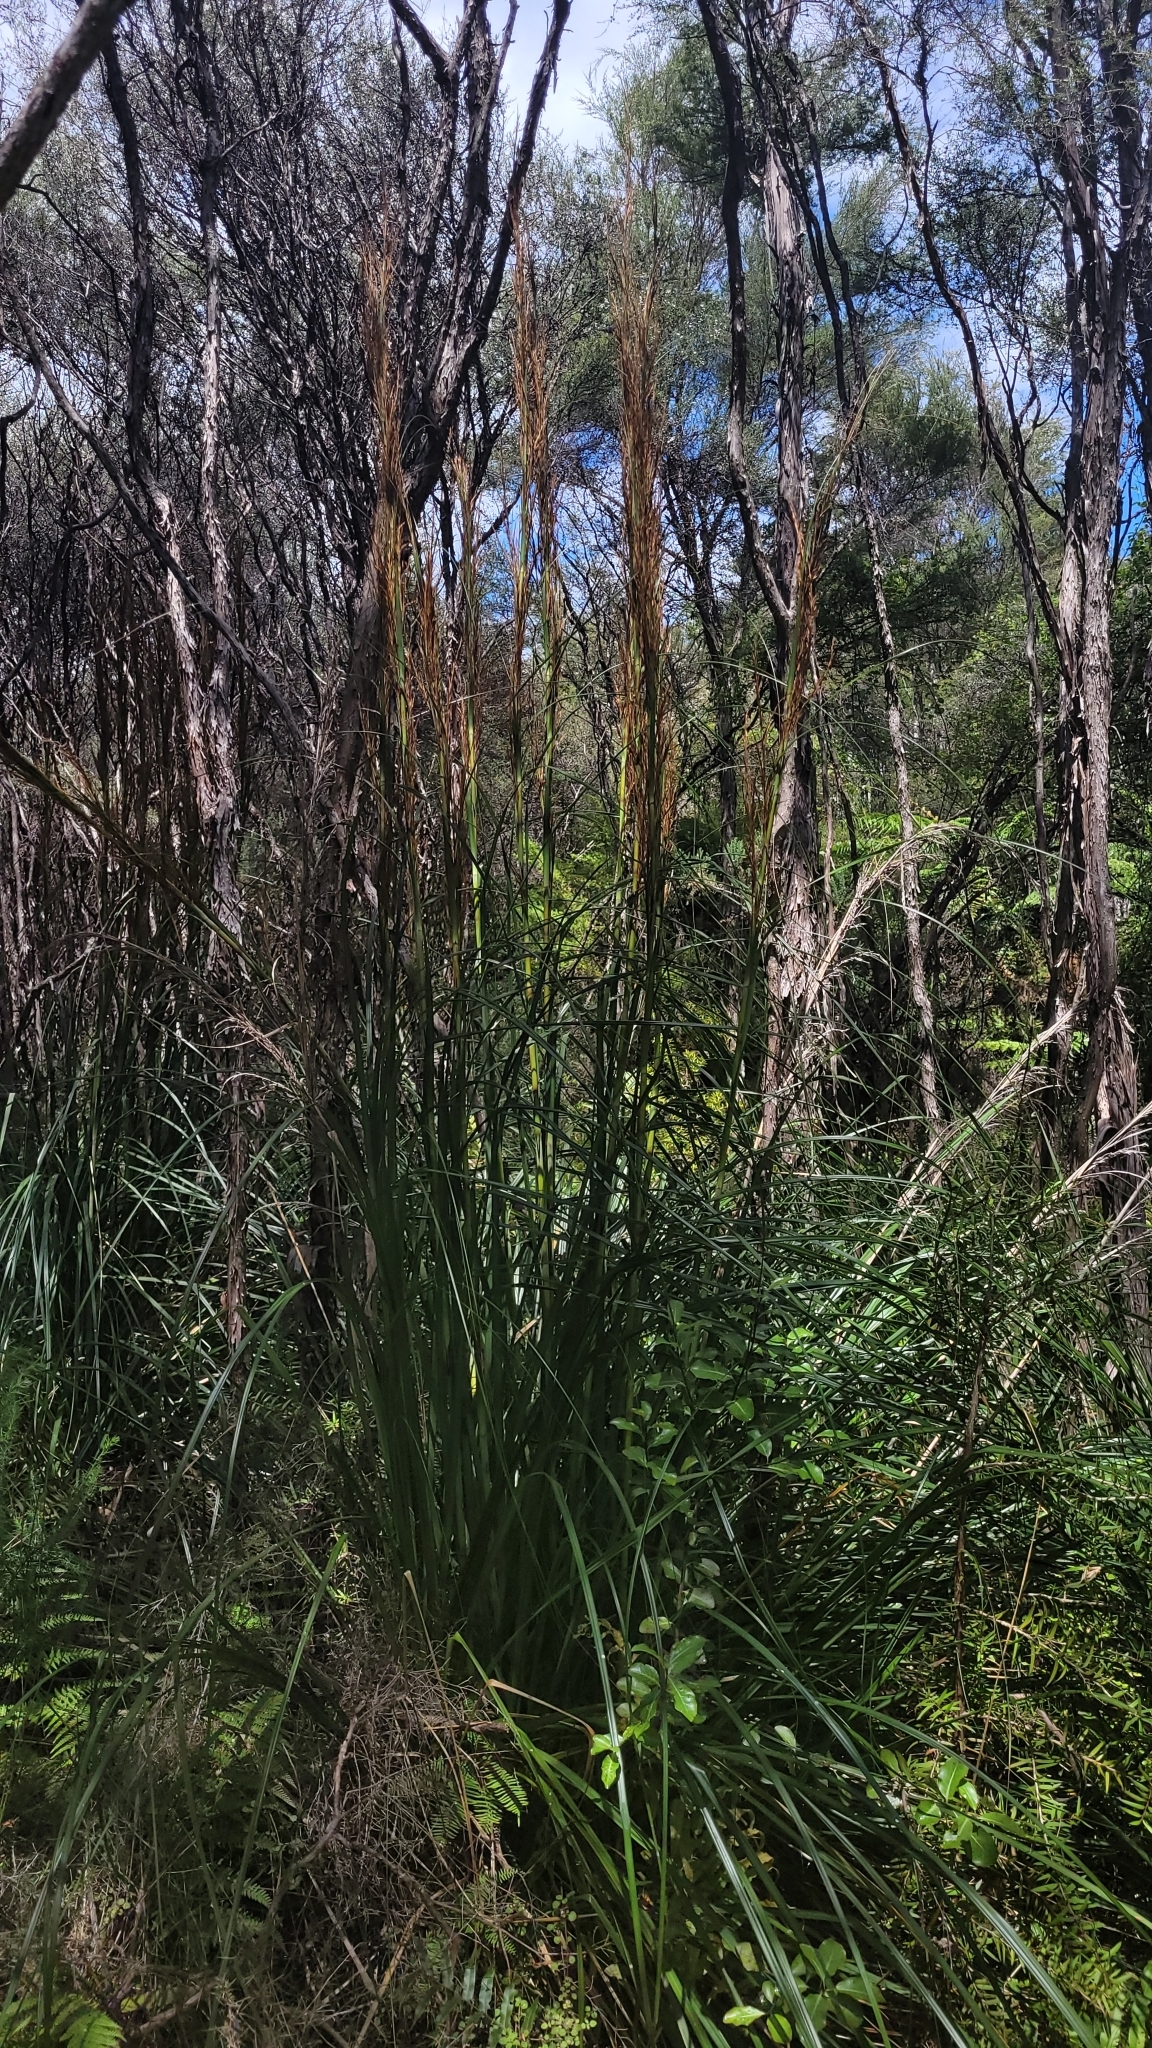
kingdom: Plantae
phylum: Tracheophyta
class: Liliopsida
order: Poales
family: Cyperaceae
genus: Gahnia
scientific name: Gahnia rigida
